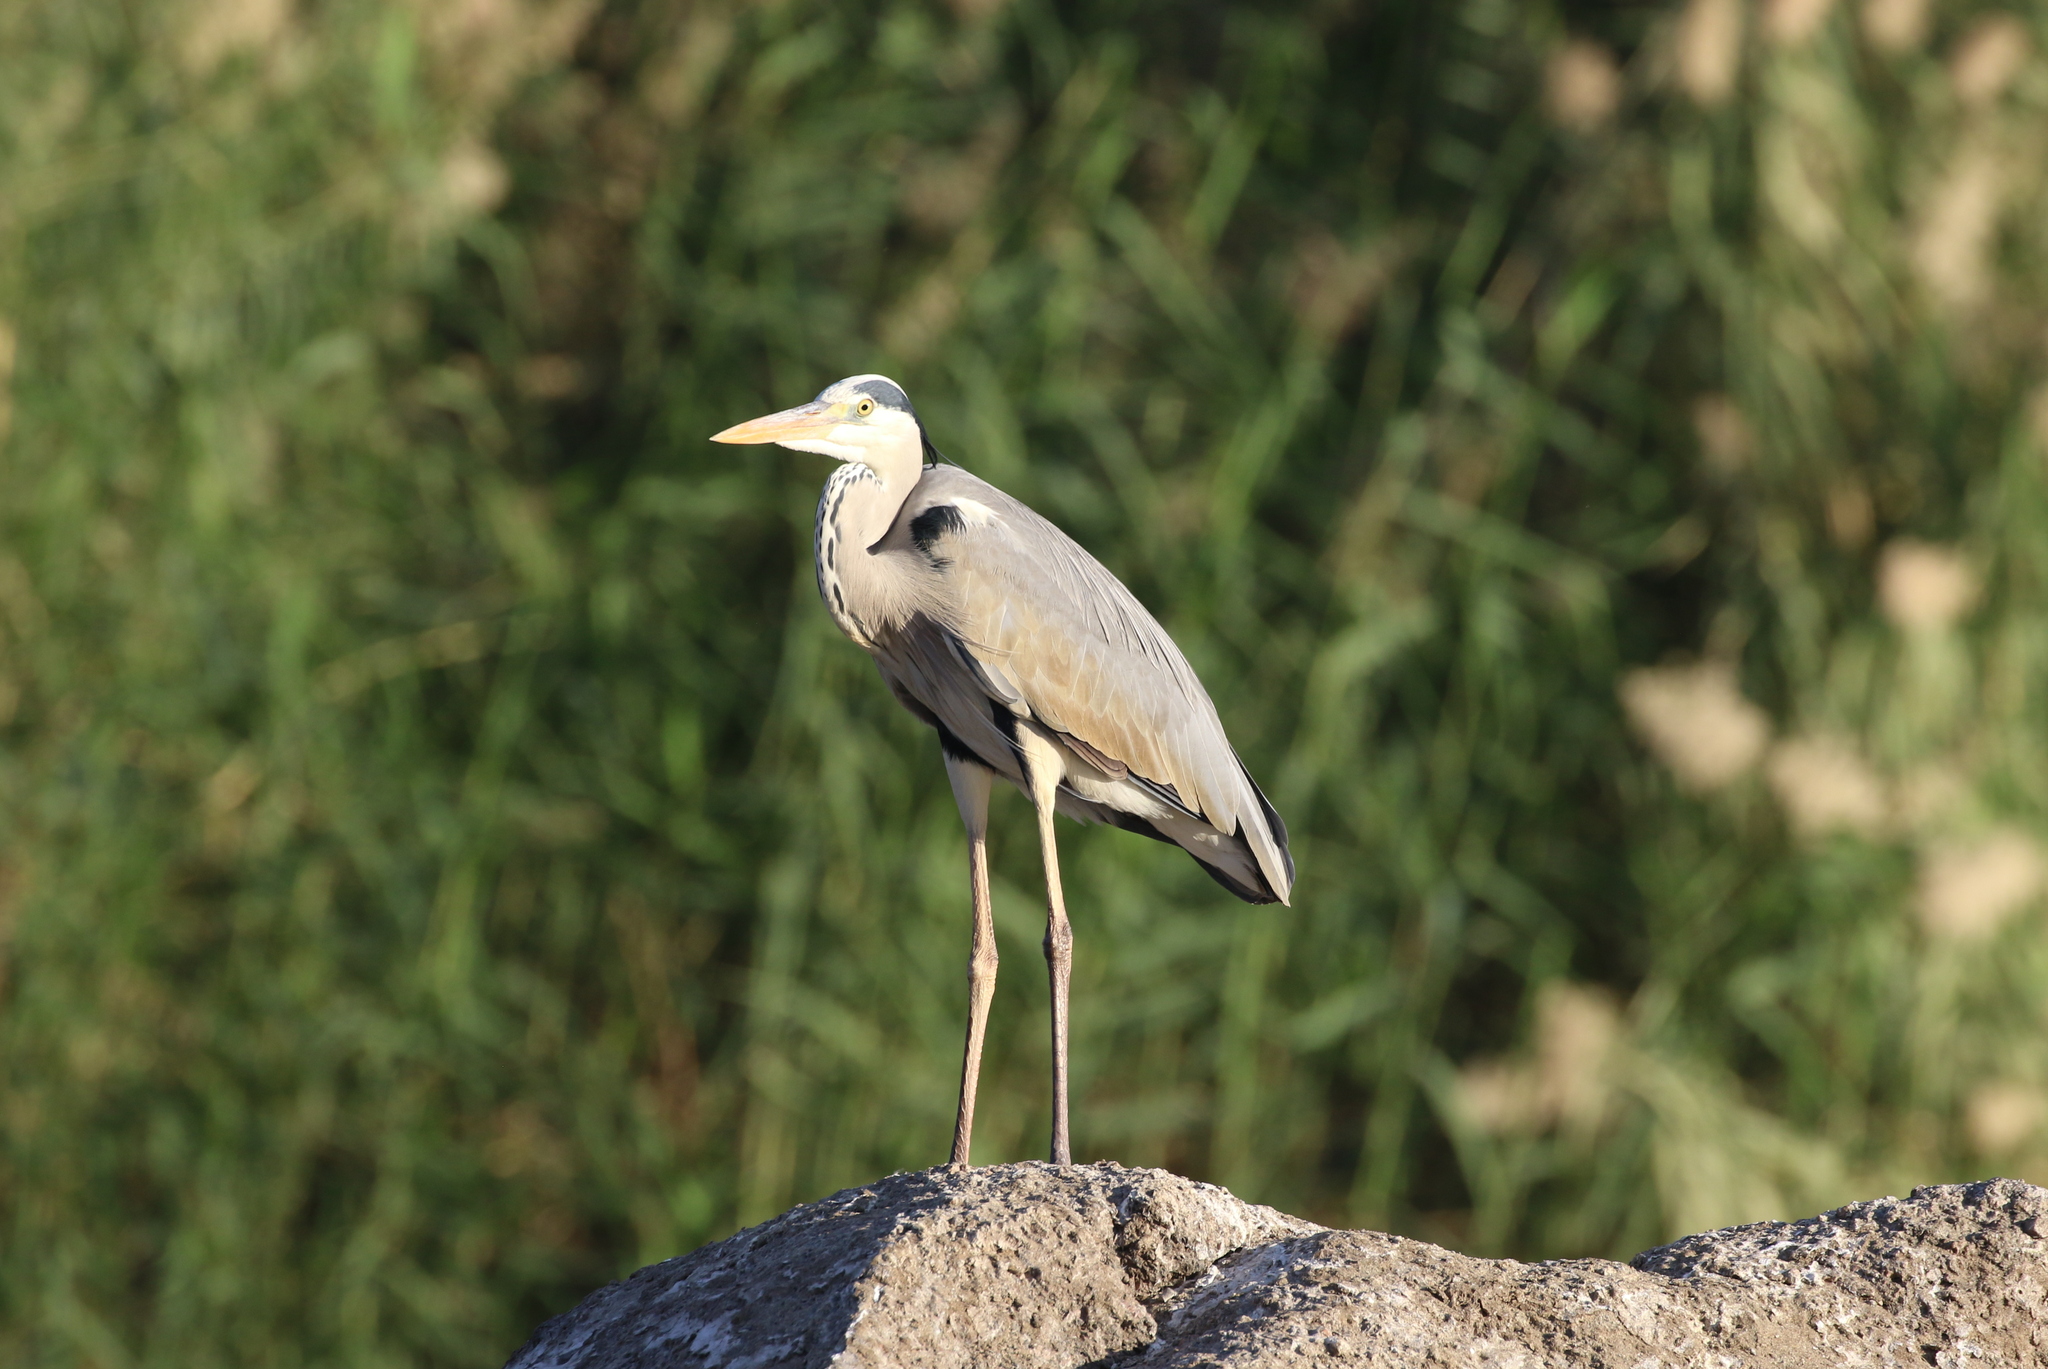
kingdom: Animalia
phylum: Chordata
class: Aves
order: Pelecaniformes
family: Ardeidae
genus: Ardea
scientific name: Ardea cinerea
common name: Grey heron
